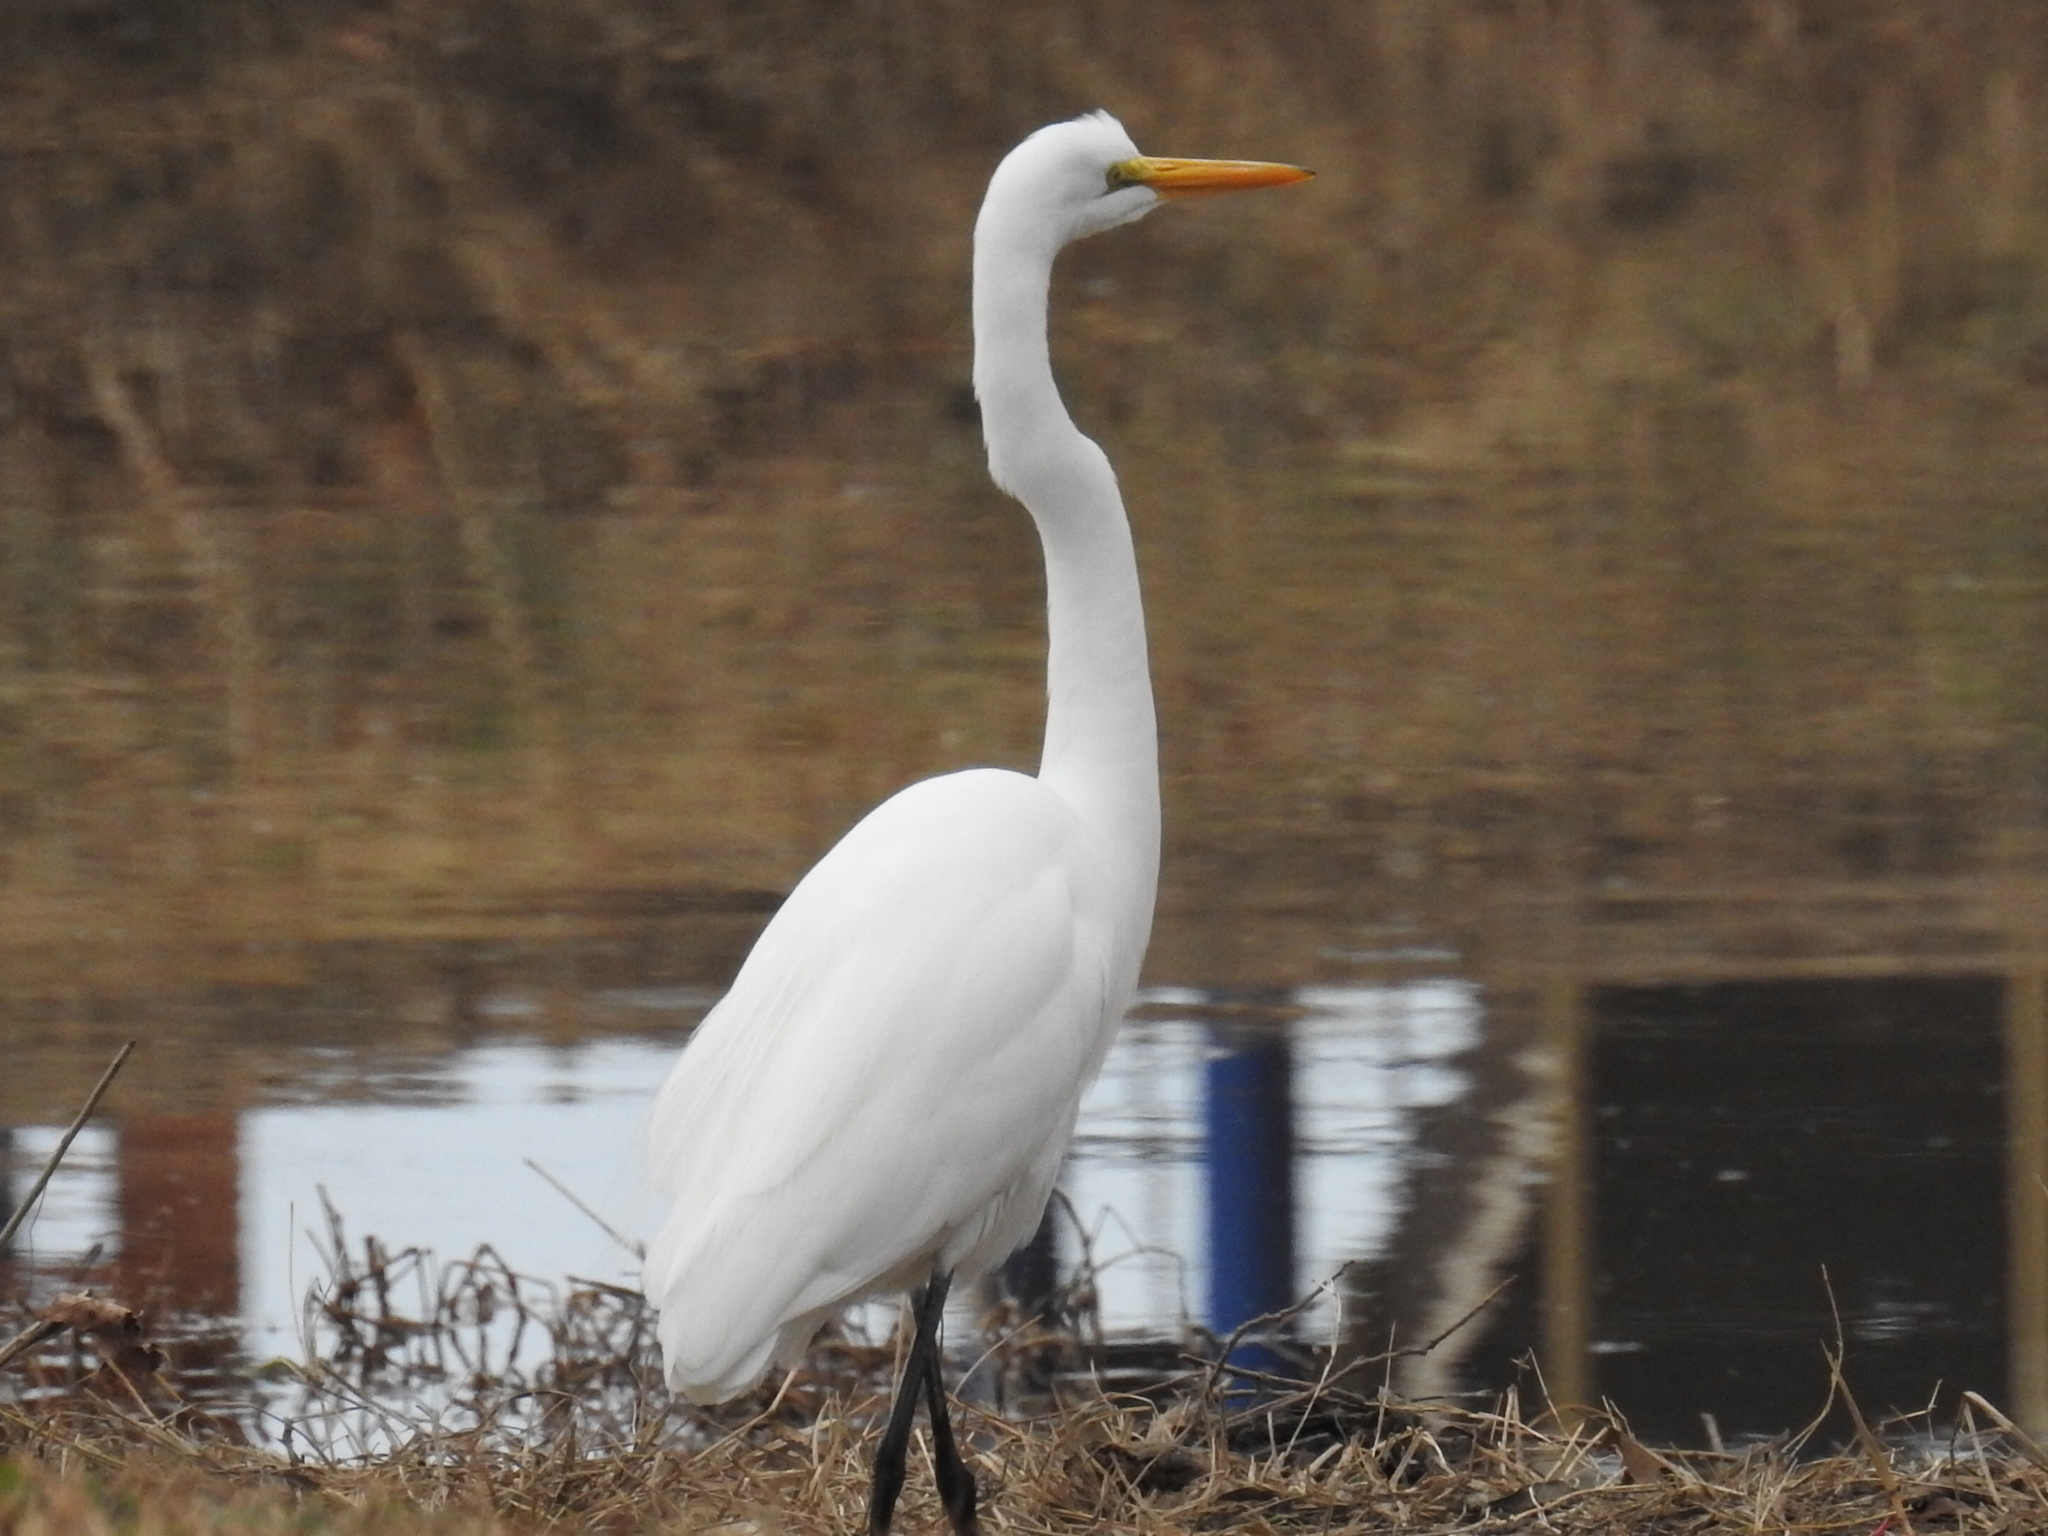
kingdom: Animalia
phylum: Chordata
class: Aves
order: Pelecaniformes
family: Ardeidae
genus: Ardea
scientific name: Ardea alba
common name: Great egret
